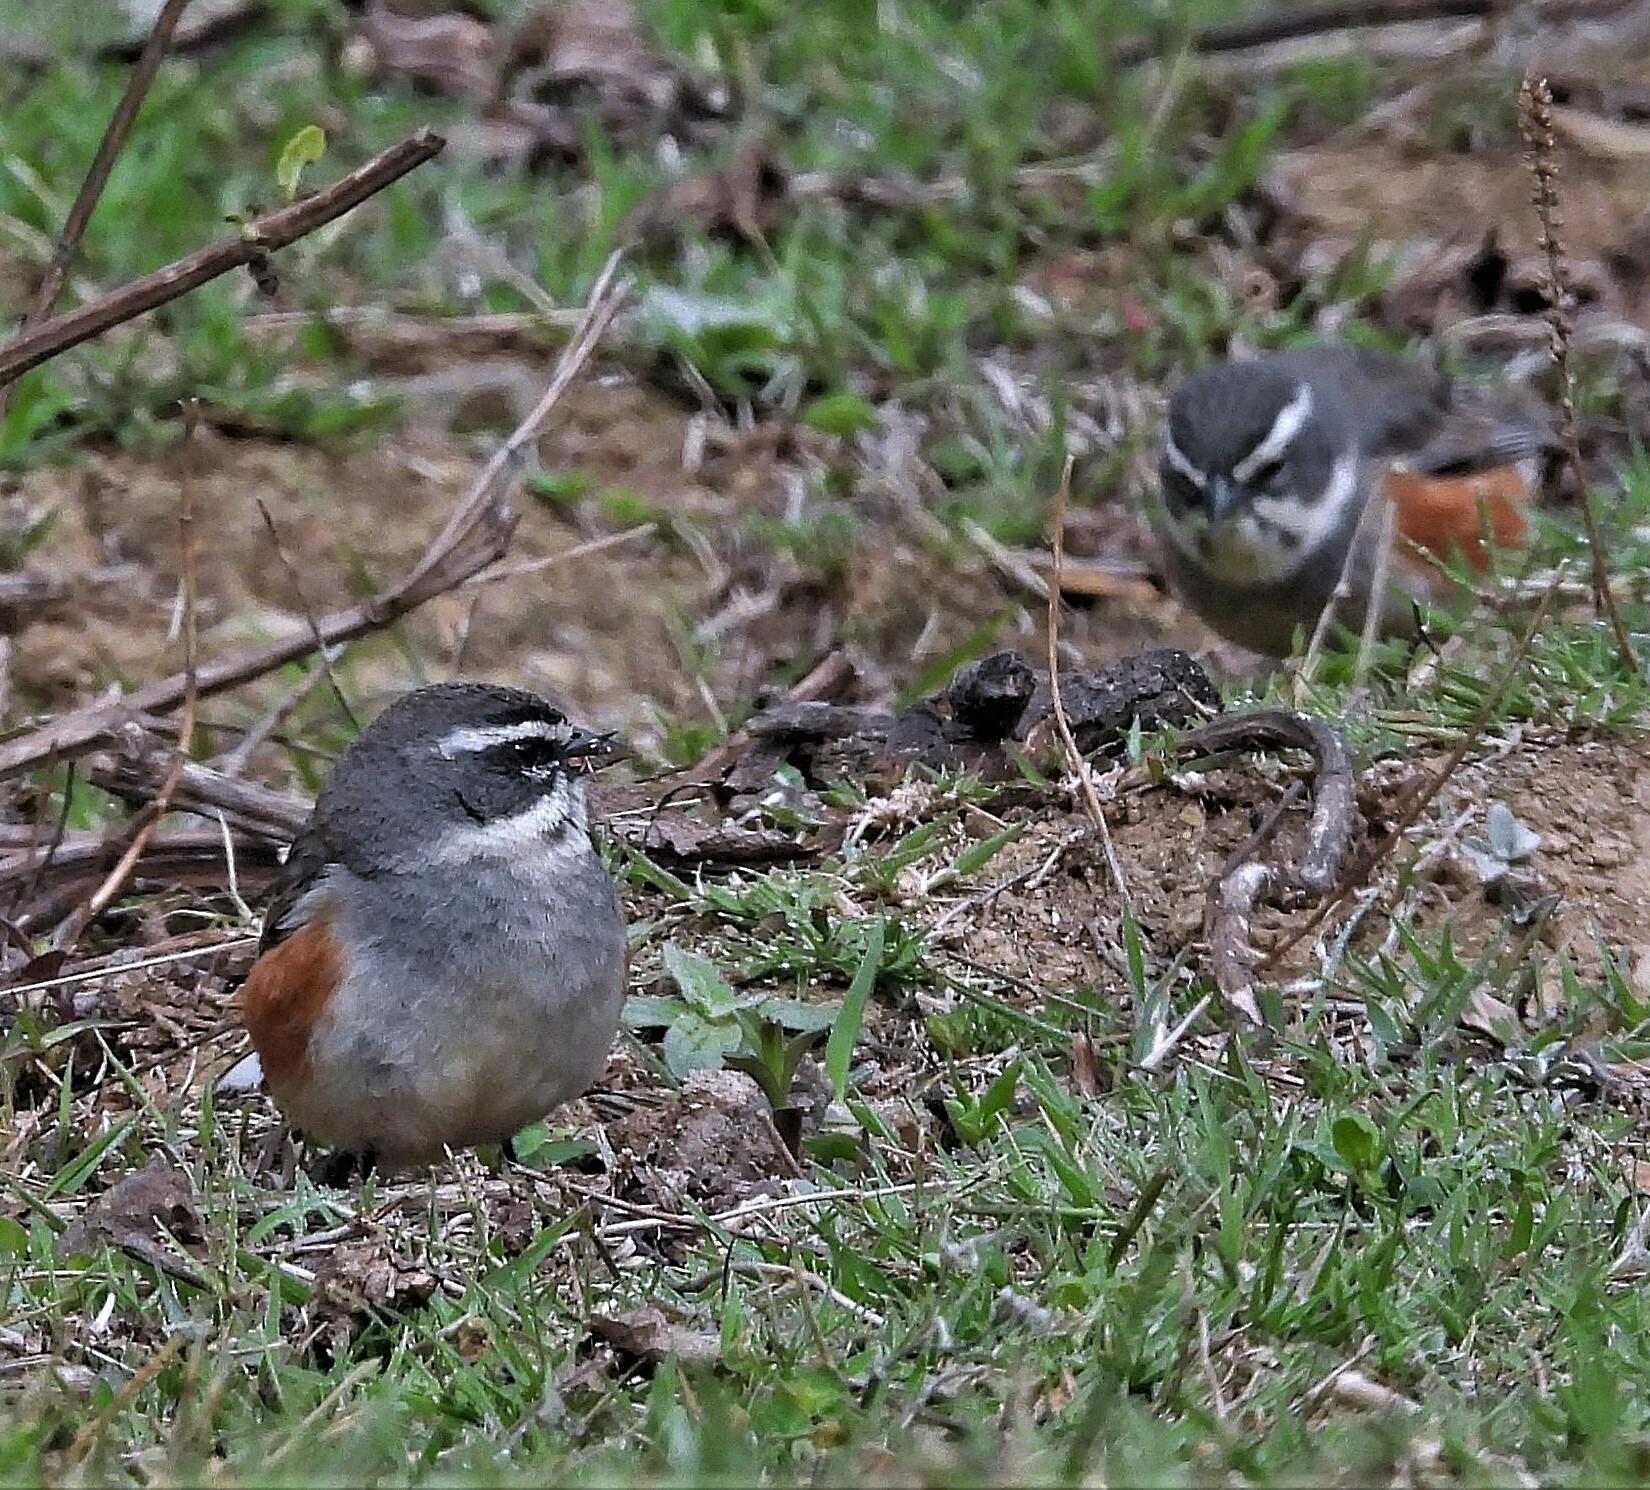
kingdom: Animalia
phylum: Chordata
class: Aves
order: Passeriformes
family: Thraupidae
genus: Poospizopsis
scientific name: Poospizopsis hypocondria
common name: Rufous-sided warbling-finch
